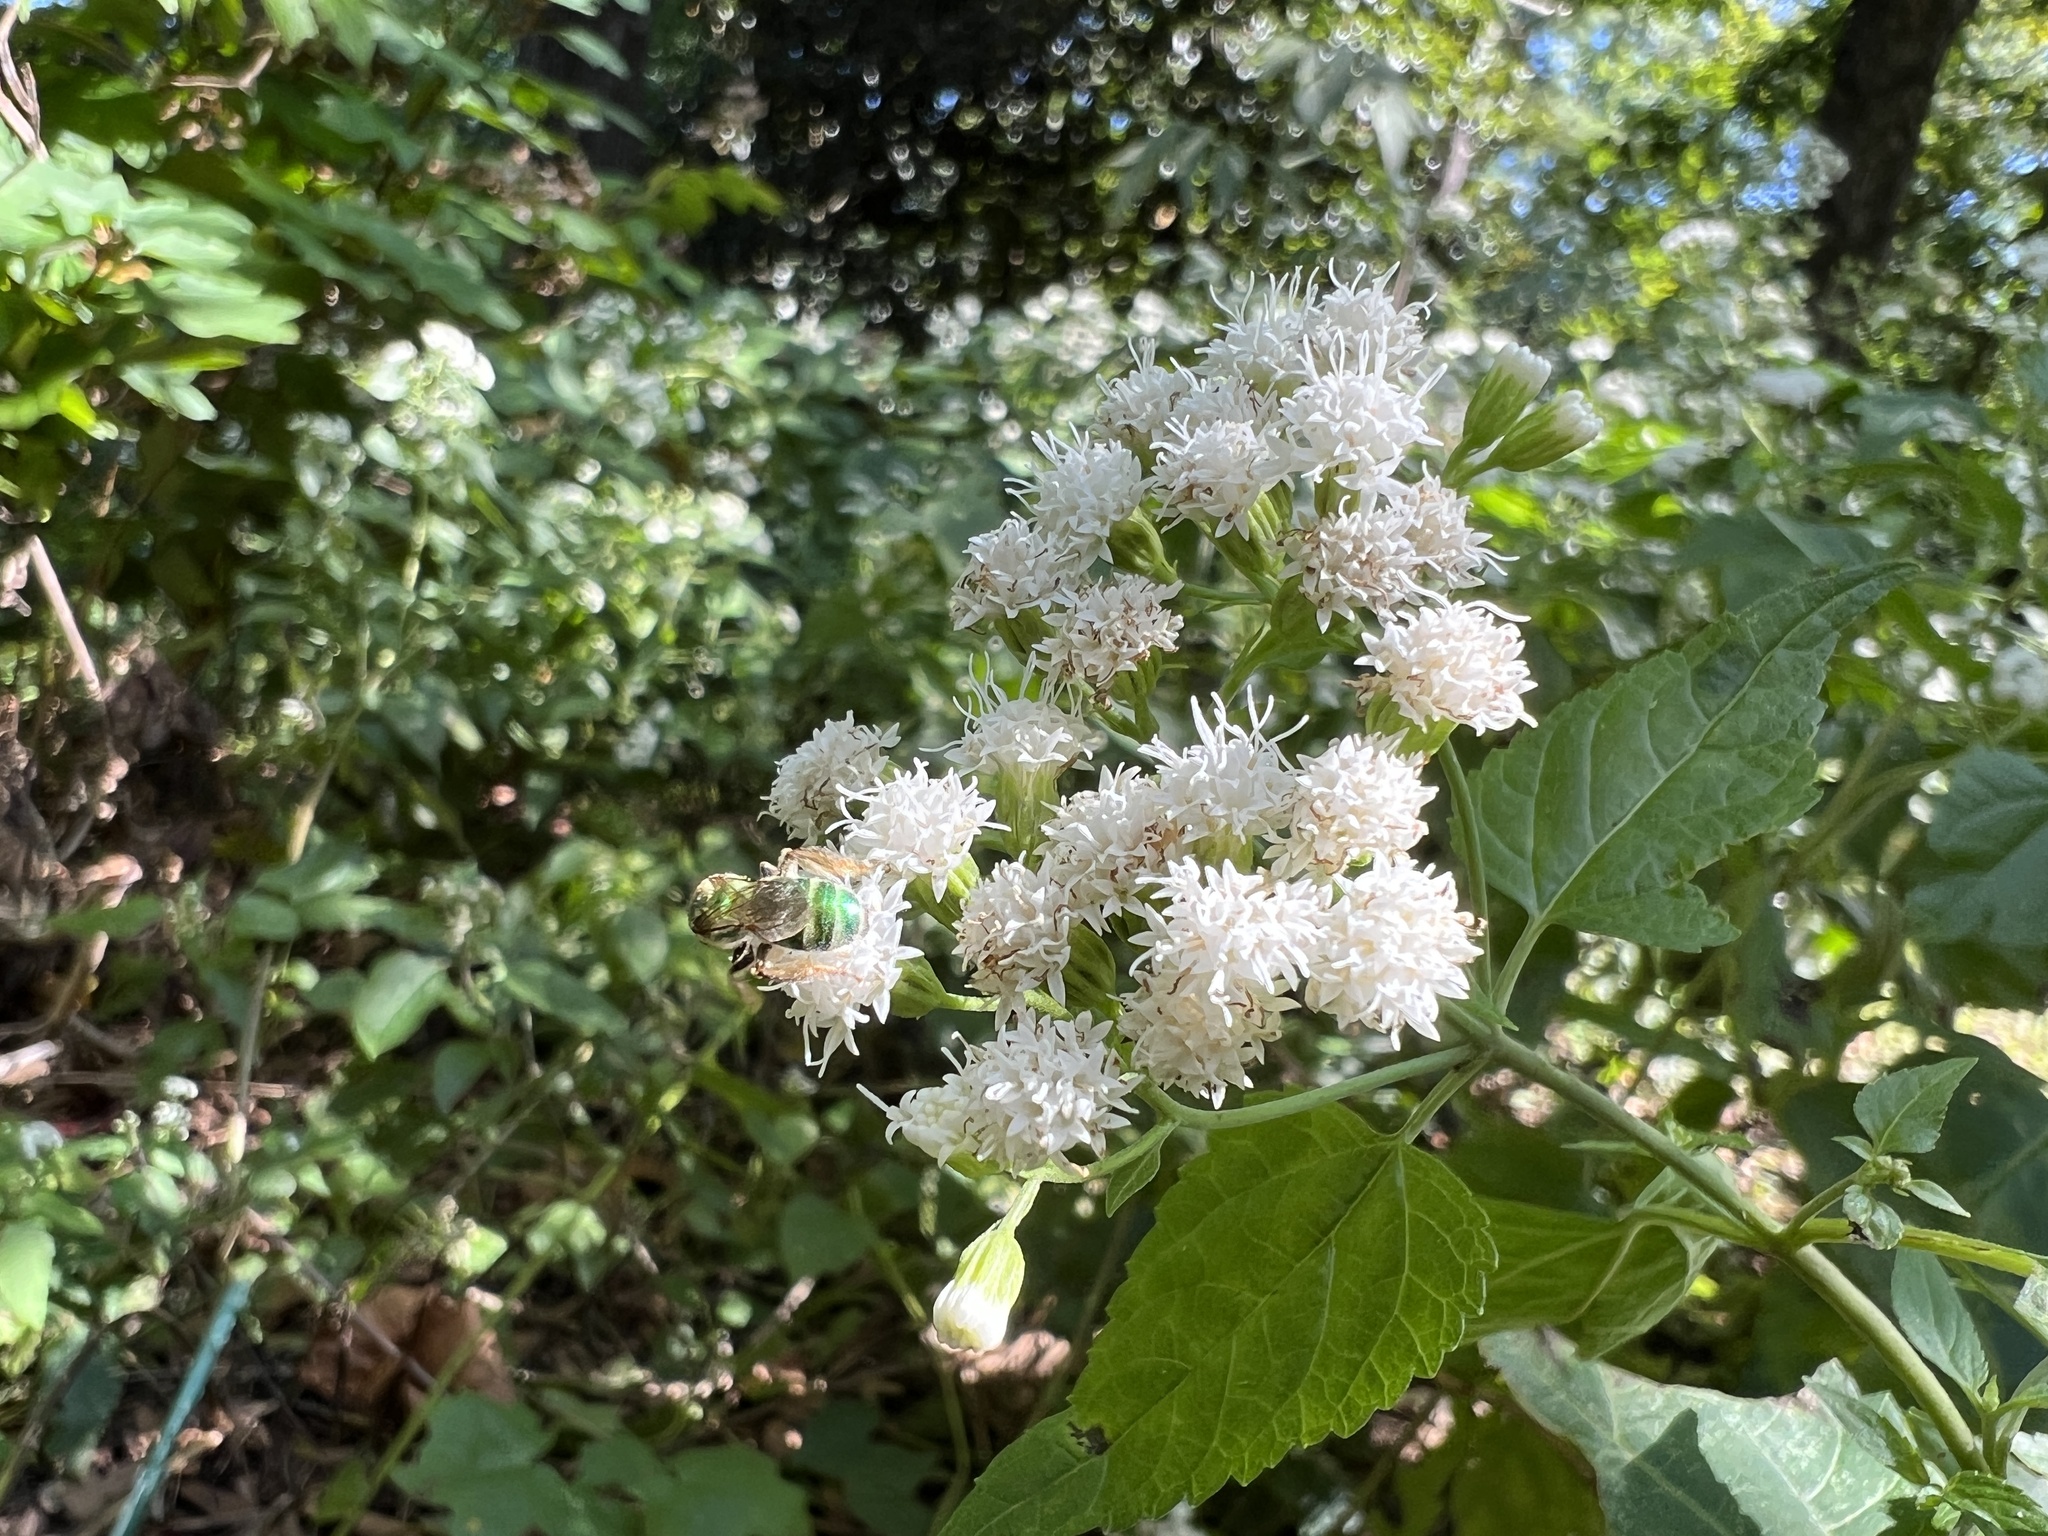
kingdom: Plantae
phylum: Tracheophyta
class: Magnoliopsida
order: Asterales
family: Asteraceae
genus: Ageratina
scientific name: Ageratina altissima
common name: White snakeroot
